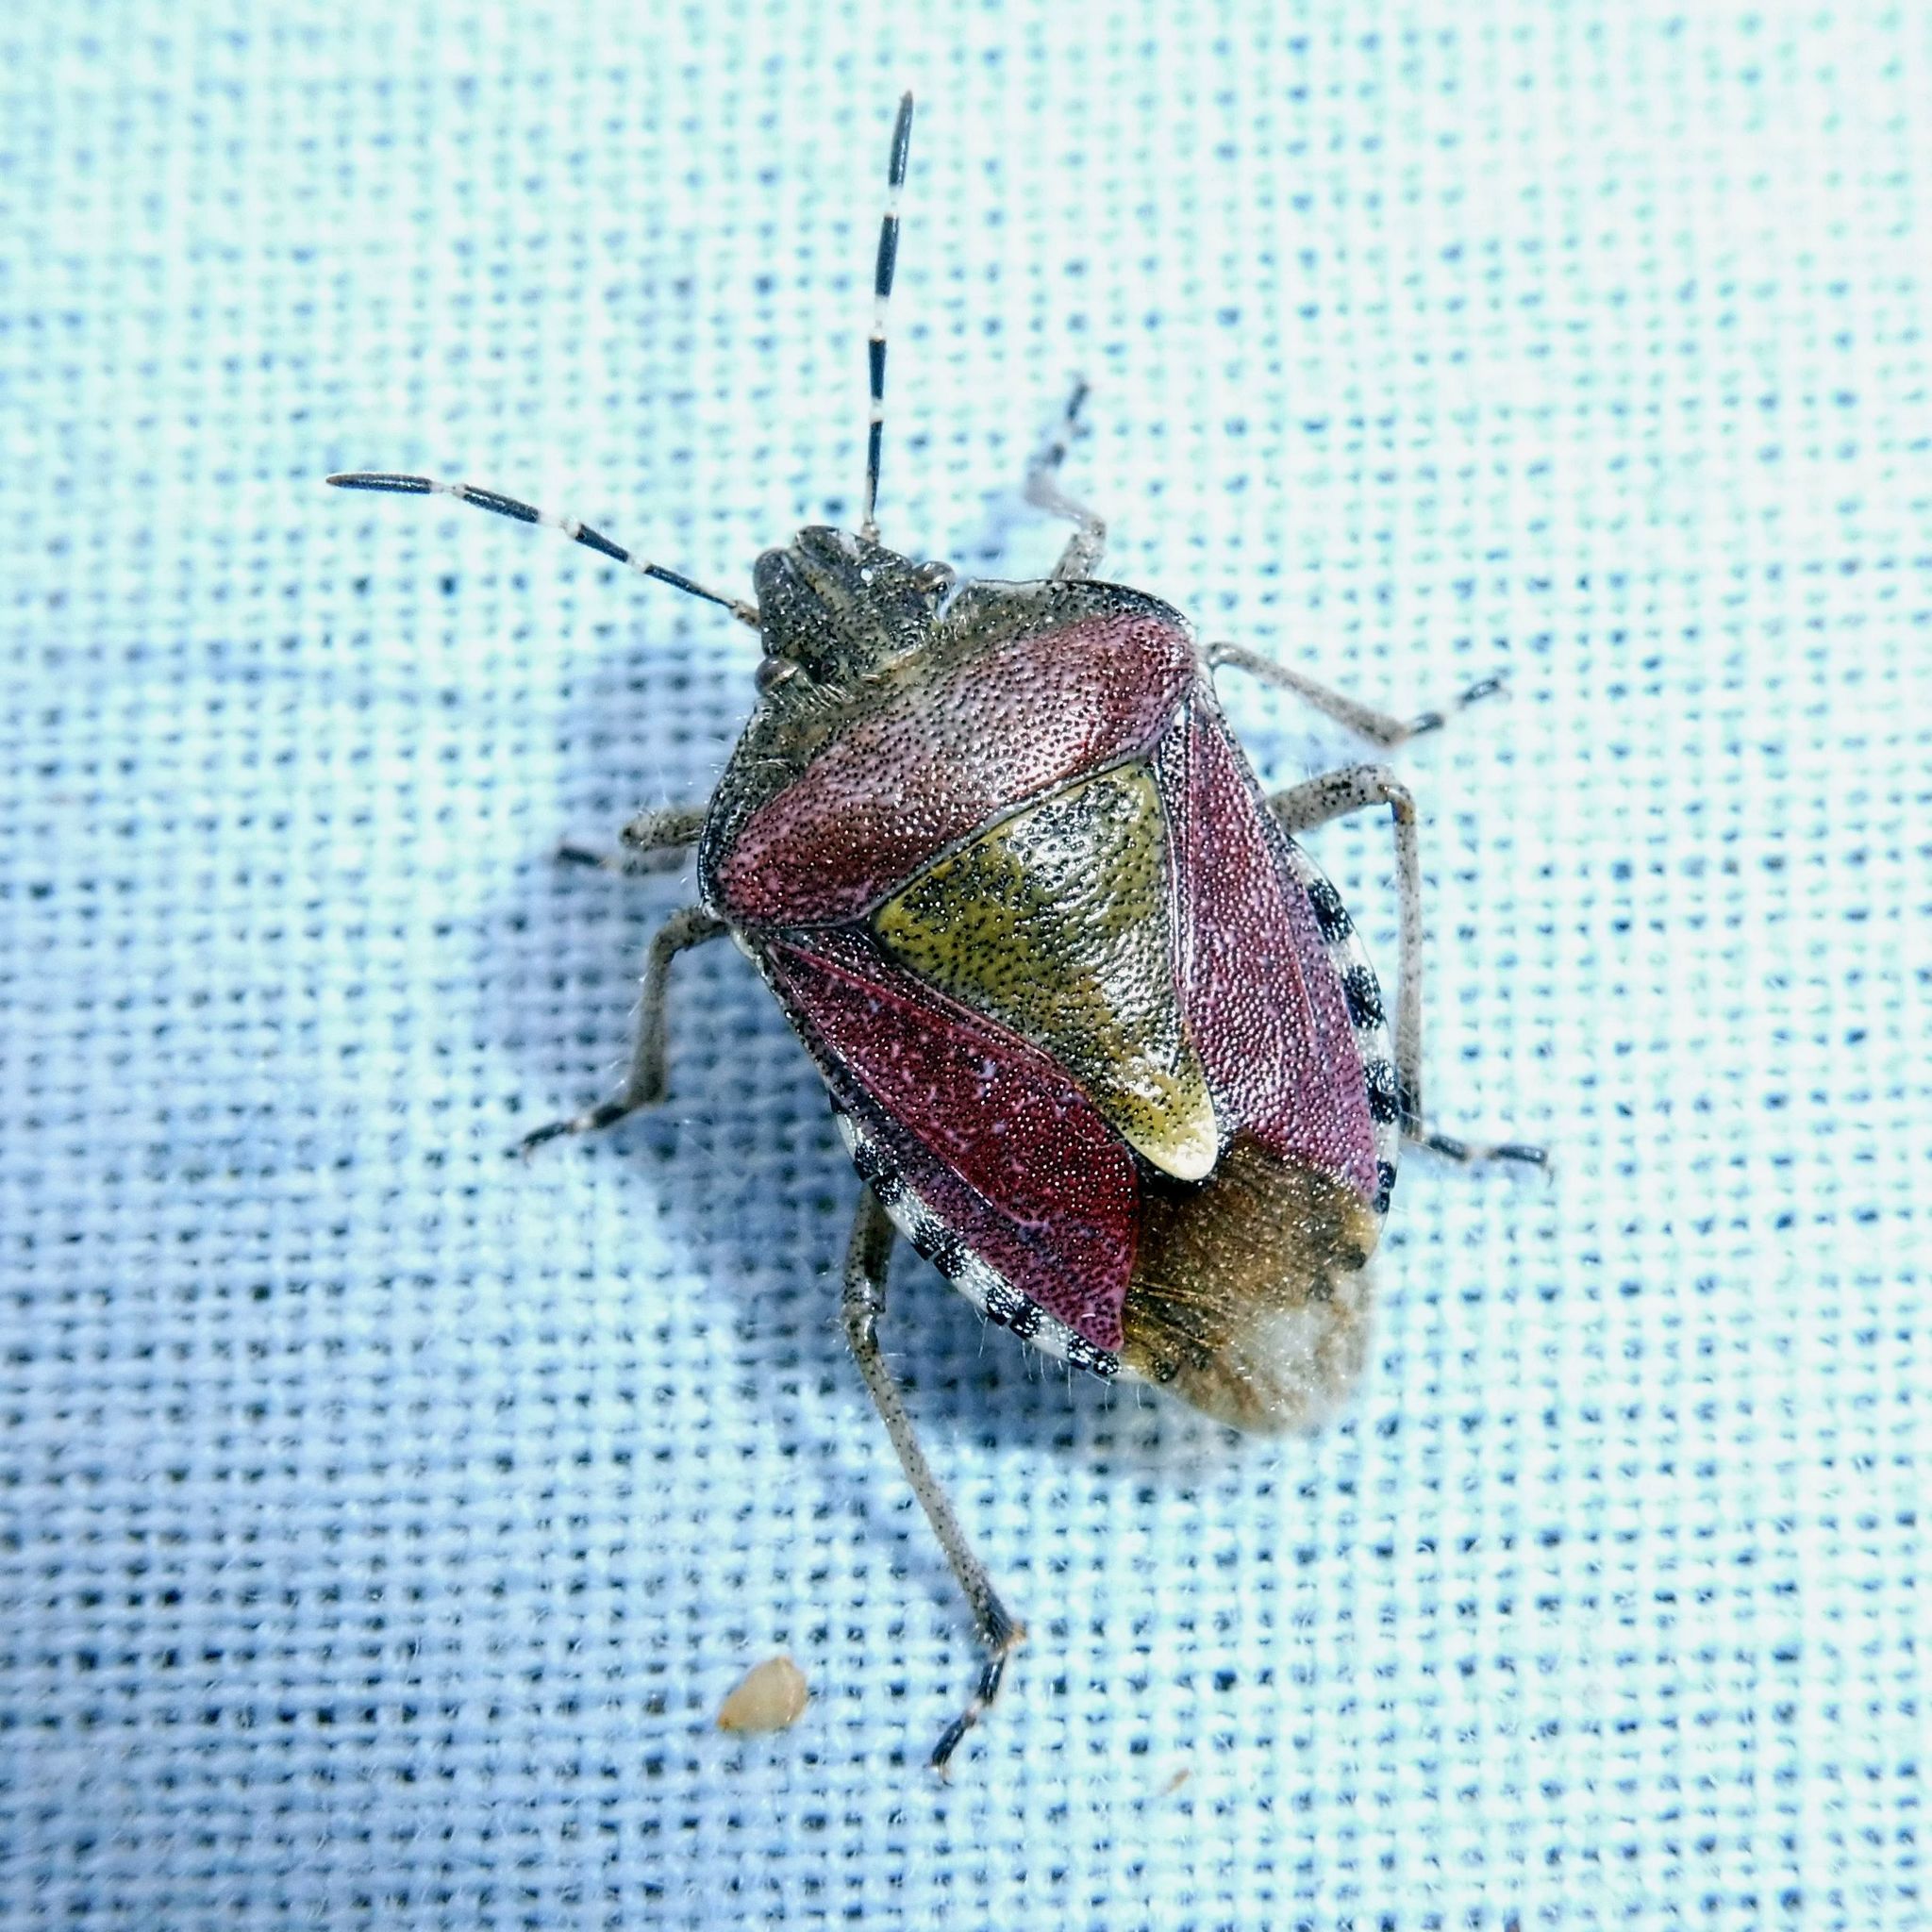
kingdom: Animalia
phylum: Arthropoda
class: Insecta
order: Hemiptera
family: Pentatomidae
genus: Dolycoris
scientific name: Dolycoris baccarum
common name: Sloe bug
